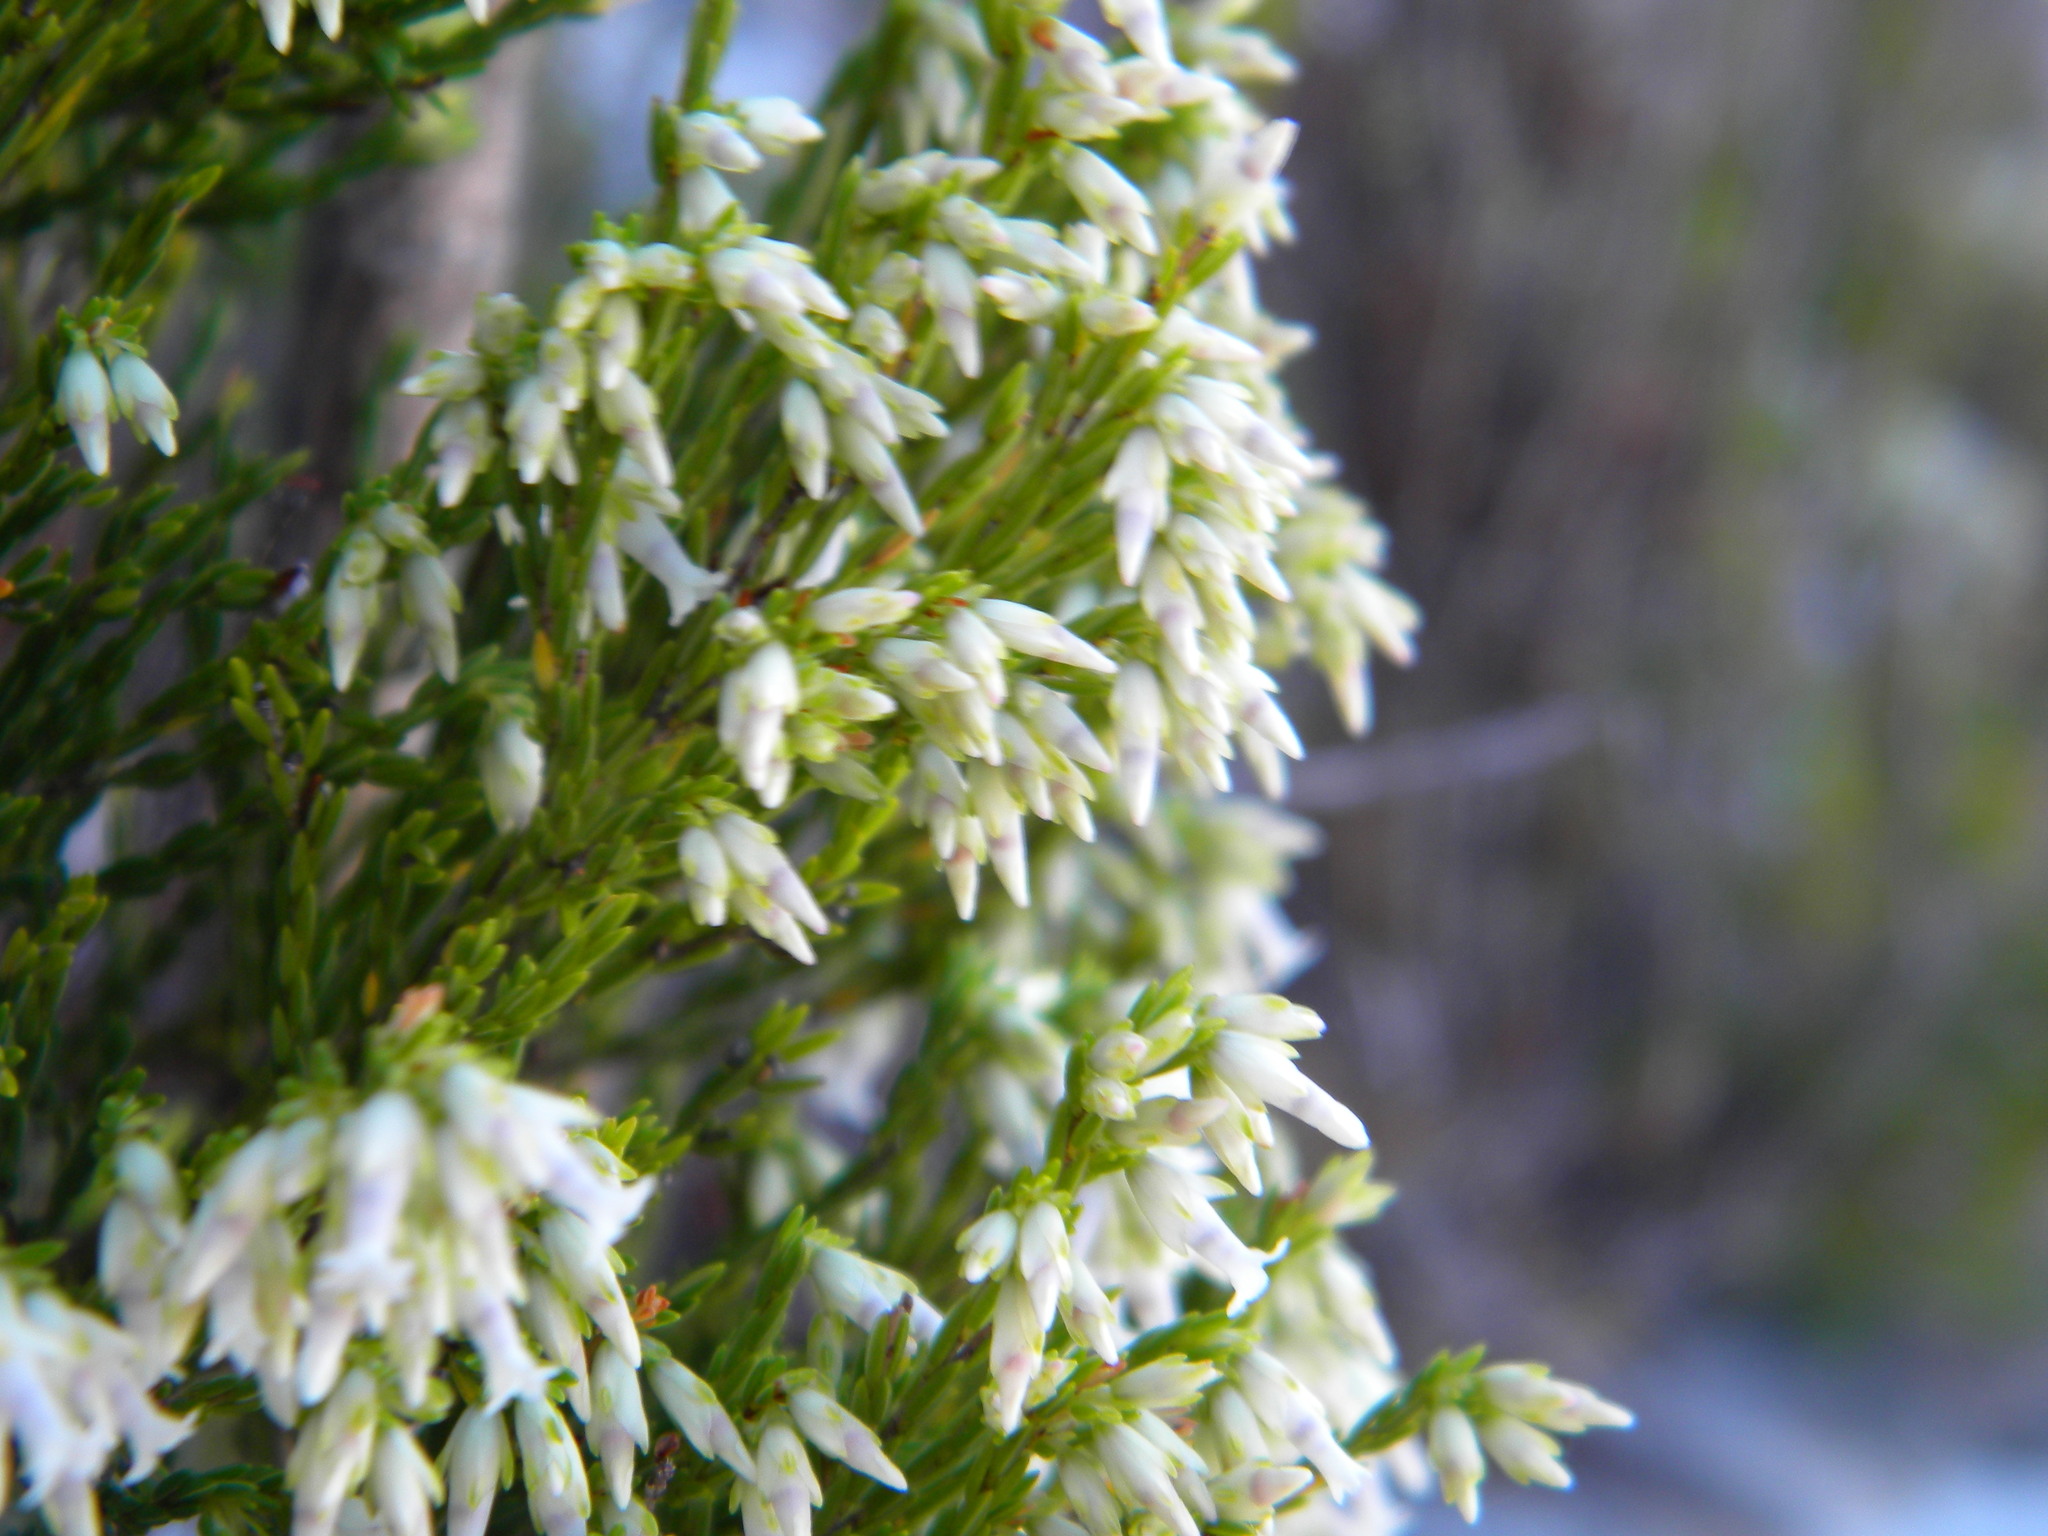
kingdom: Plantae
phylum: Tracheophyta
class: Magnoliopsida
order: Ericales
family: Ericaceae
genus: Erica
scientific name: Erica lutea
